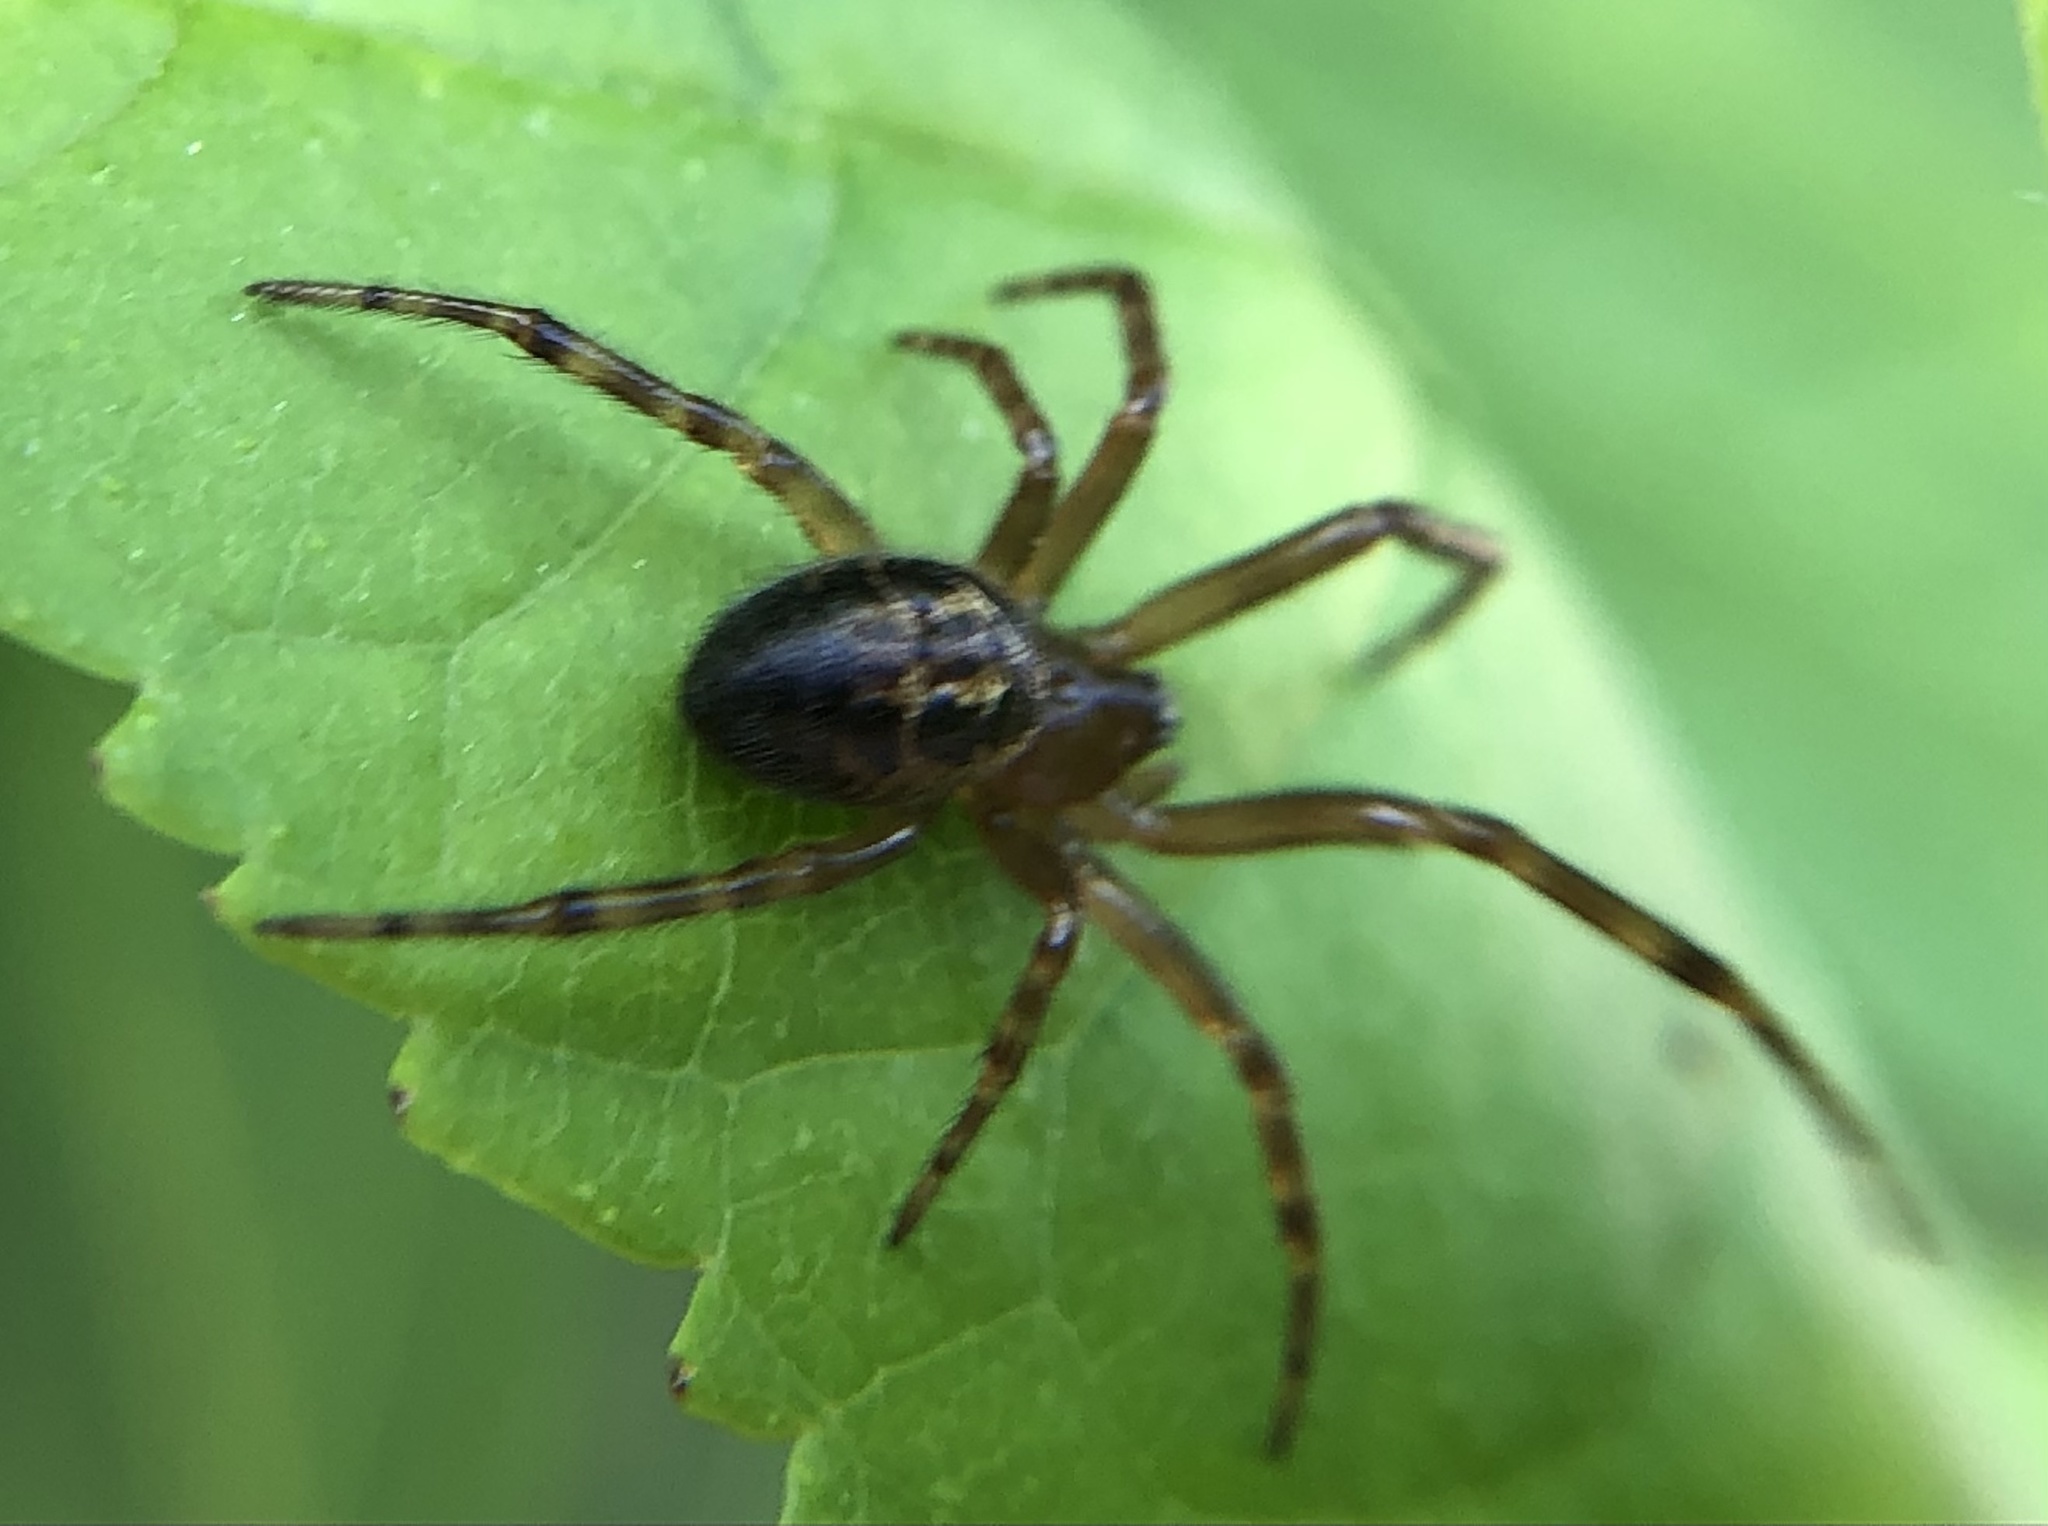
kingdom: Animalia
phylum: Arthropoda
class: Arachnida
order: Araneae
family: Theridiidae
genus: Steatoda
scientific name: Steatoda nobilis
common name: Cobweb weaver
